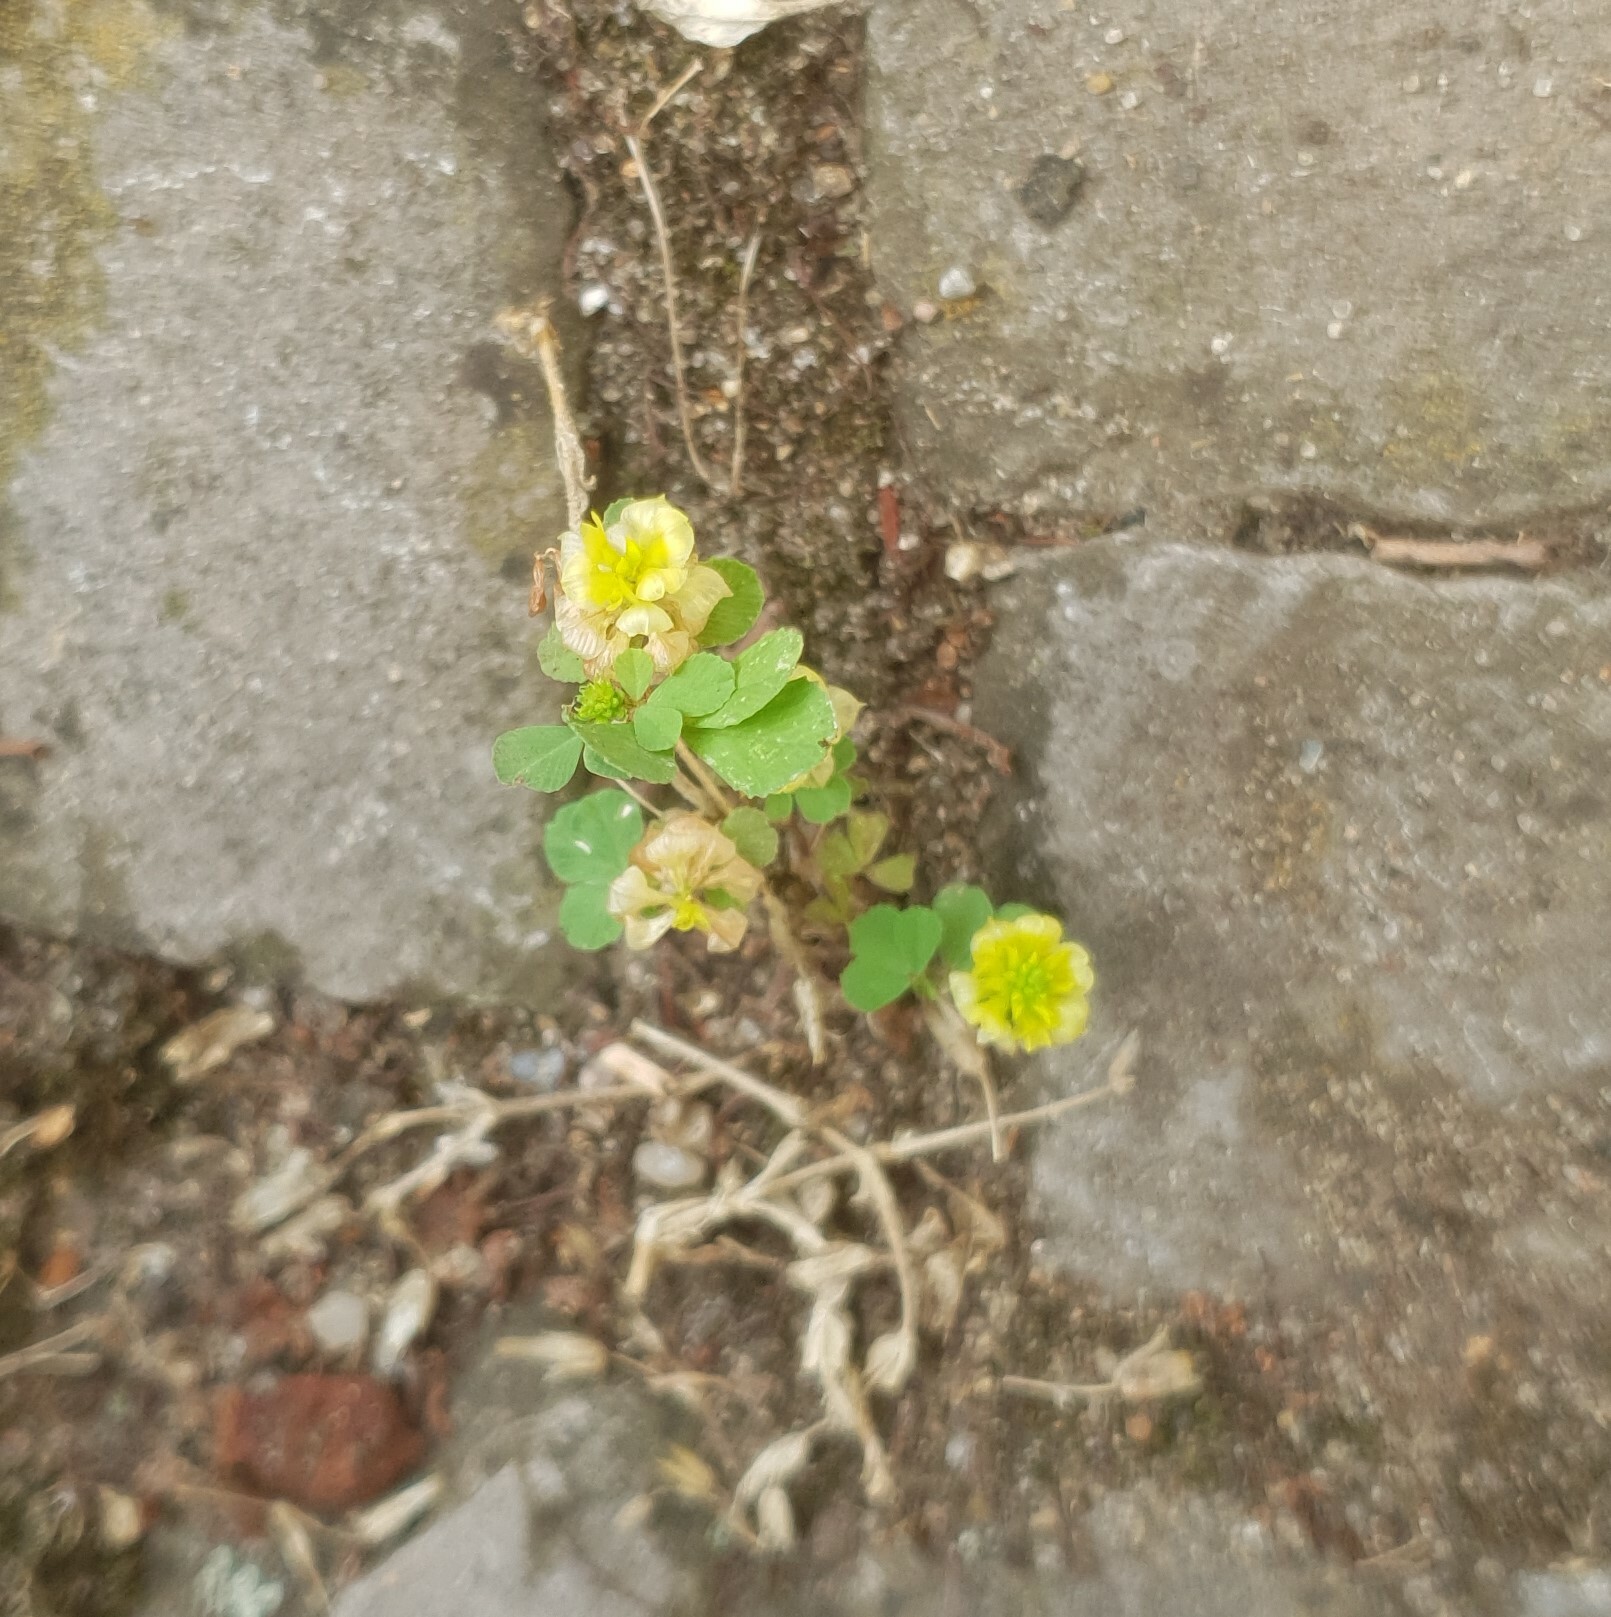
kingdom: Plantae
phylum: Tracheophyta
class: Magnoliopsida
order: Fabales
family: Fabaceae
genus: Trifolium
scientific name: Trifolium campestre
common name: Field clover
